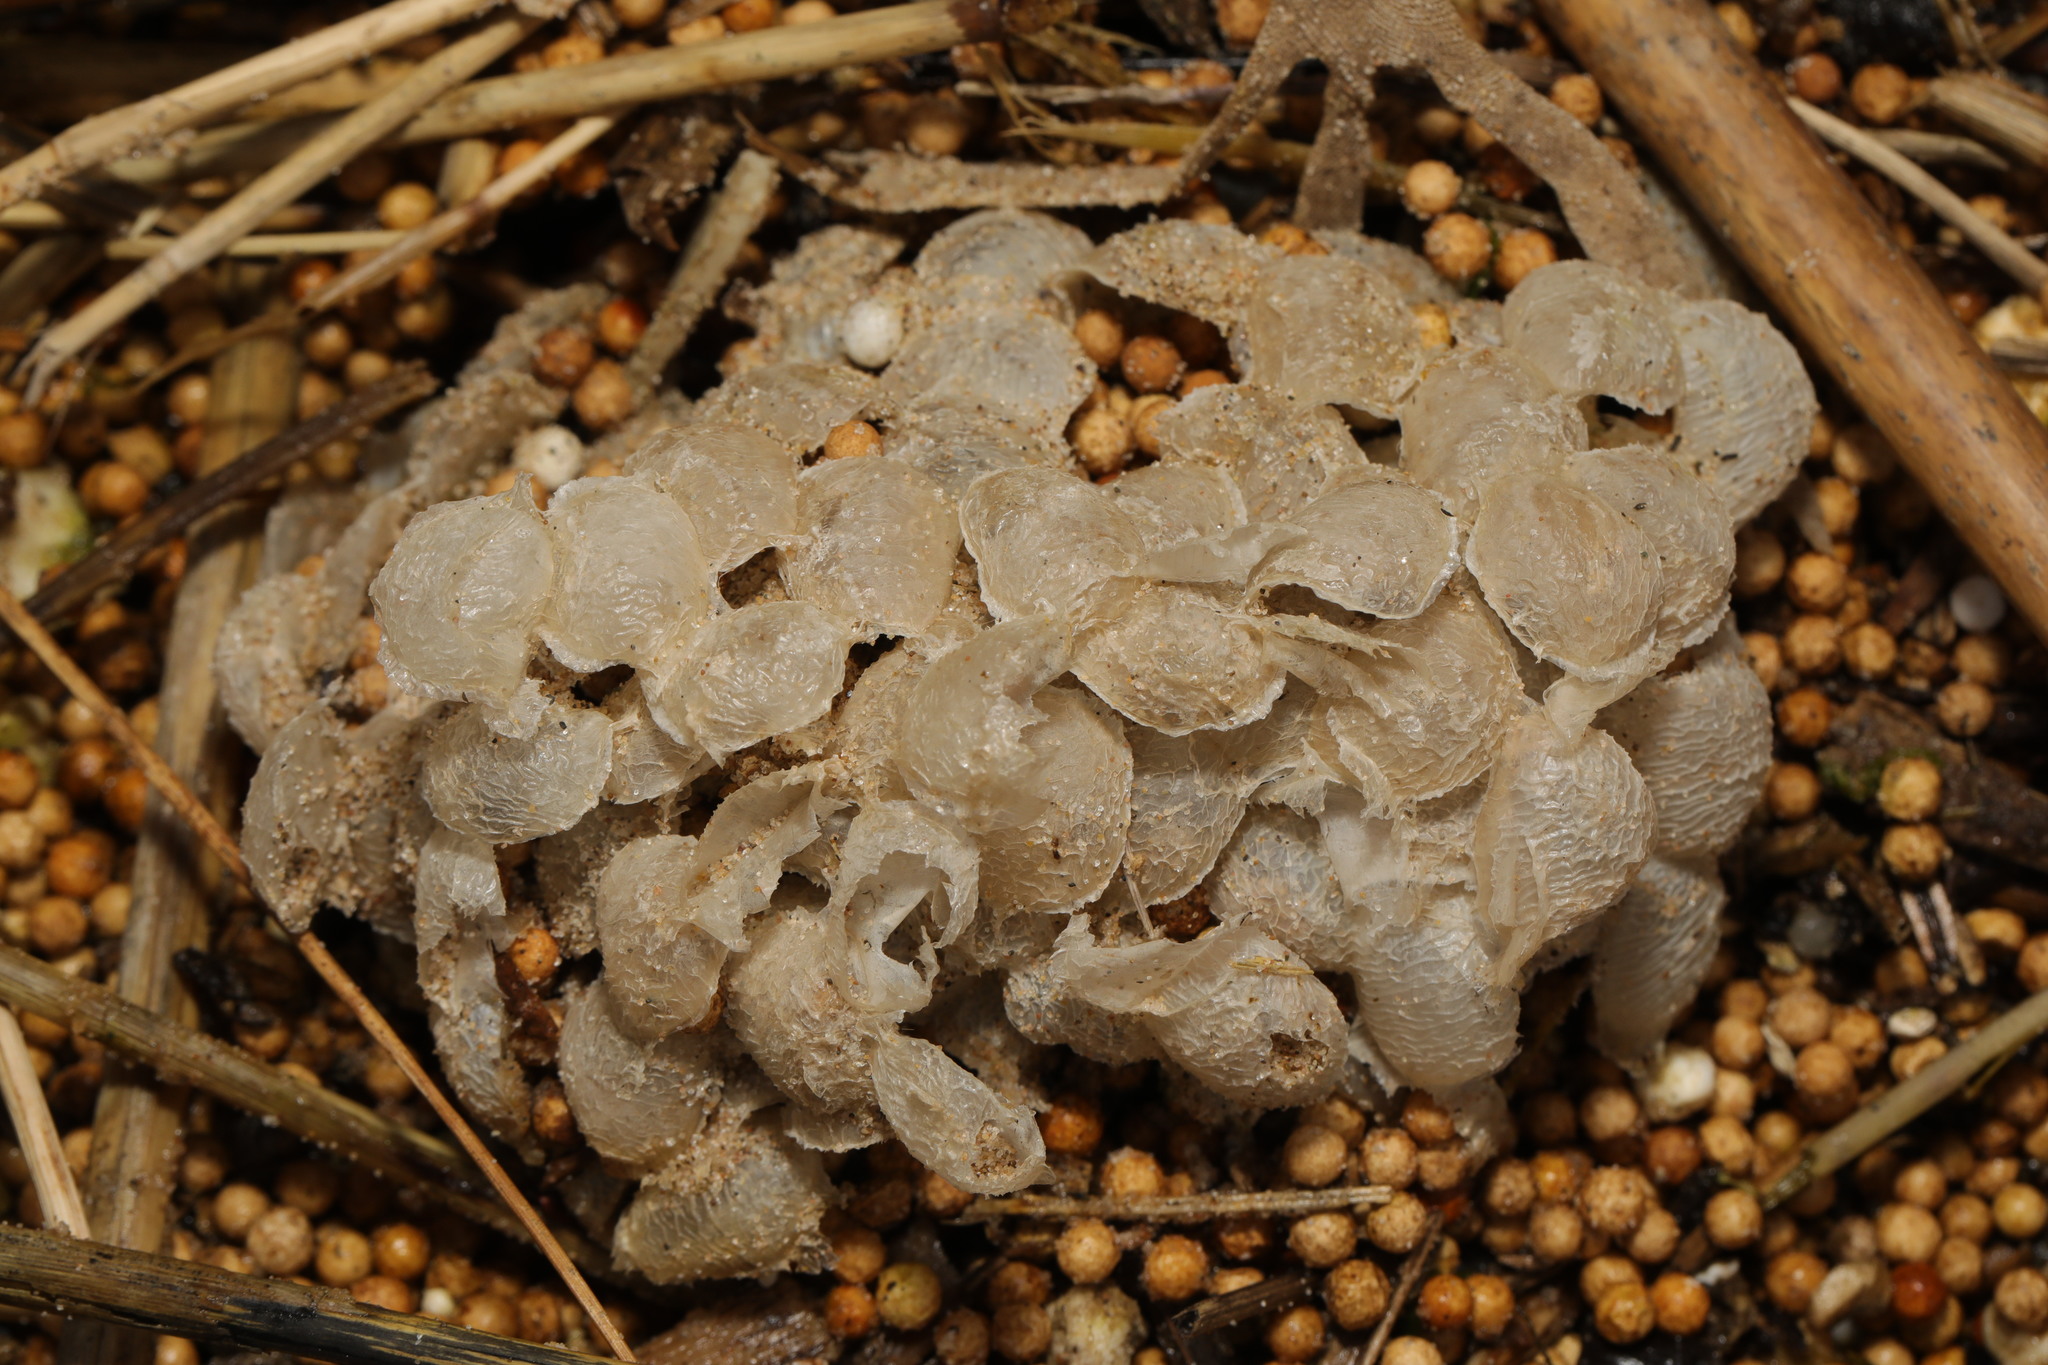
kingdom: Animalia
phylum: Mollusca
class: Gastropoda
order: Neogastropoda
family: Buccinidae
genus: Buccinum
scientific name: Buccinum undatum
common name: Common whelk
